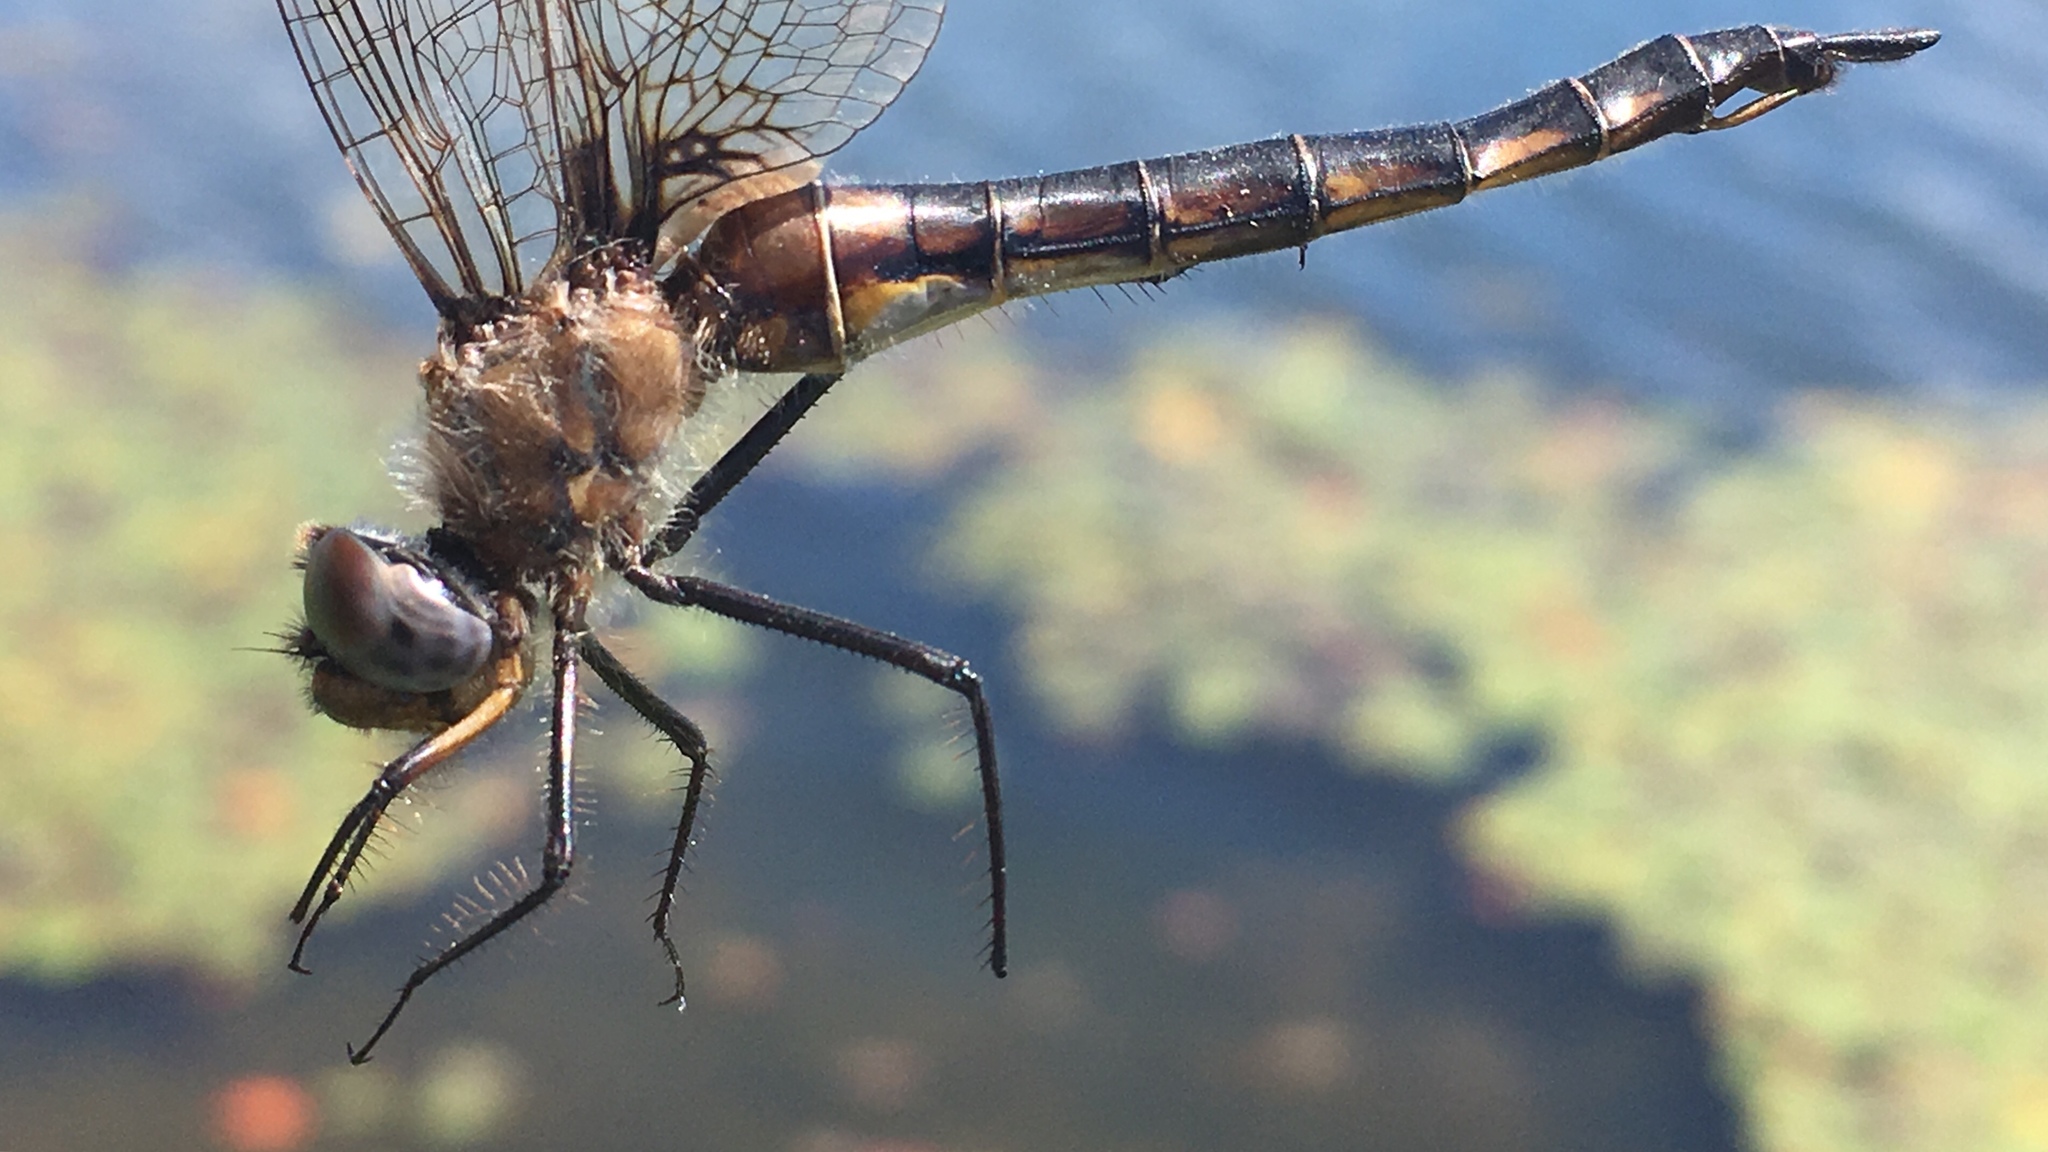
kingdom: Animalia
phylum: Arthropoda
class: Insecta
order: Odonata
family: Corduliidae
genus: Epitheca
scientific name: Epitheca spinigera
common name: Spiny baskettail
